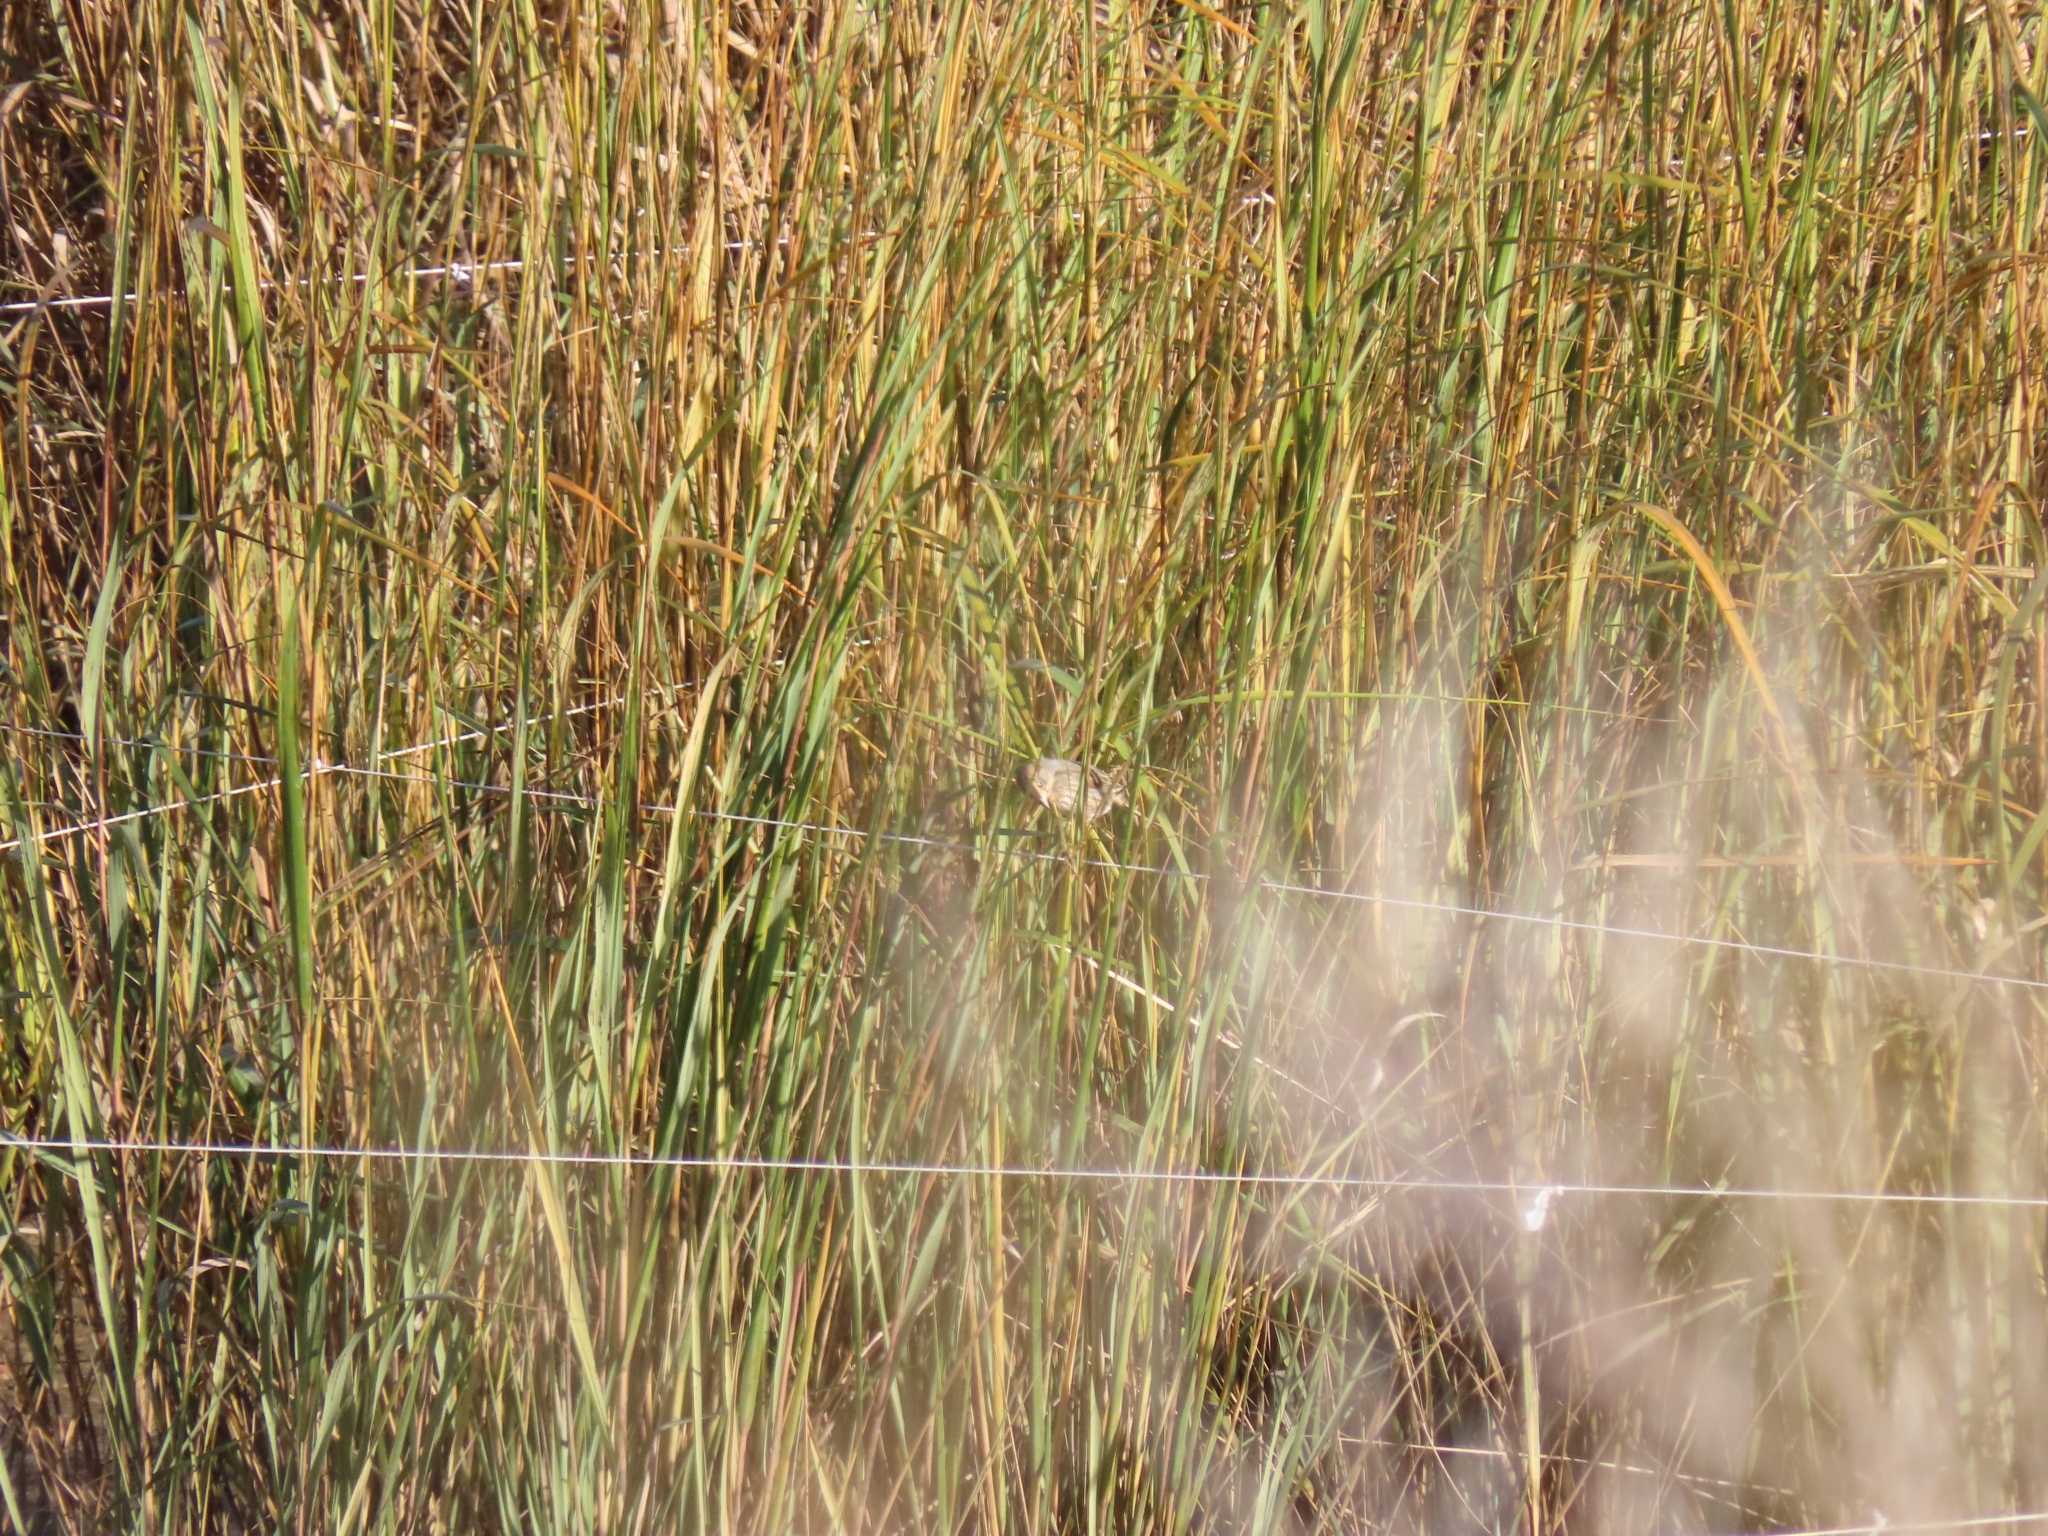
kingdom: Animalia
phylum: Chordata
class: Aves
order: Passeriformes
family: Passerellidae
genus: Ammospiza
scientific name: Ammospiza nelsoni
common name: Nelson's sparrow
